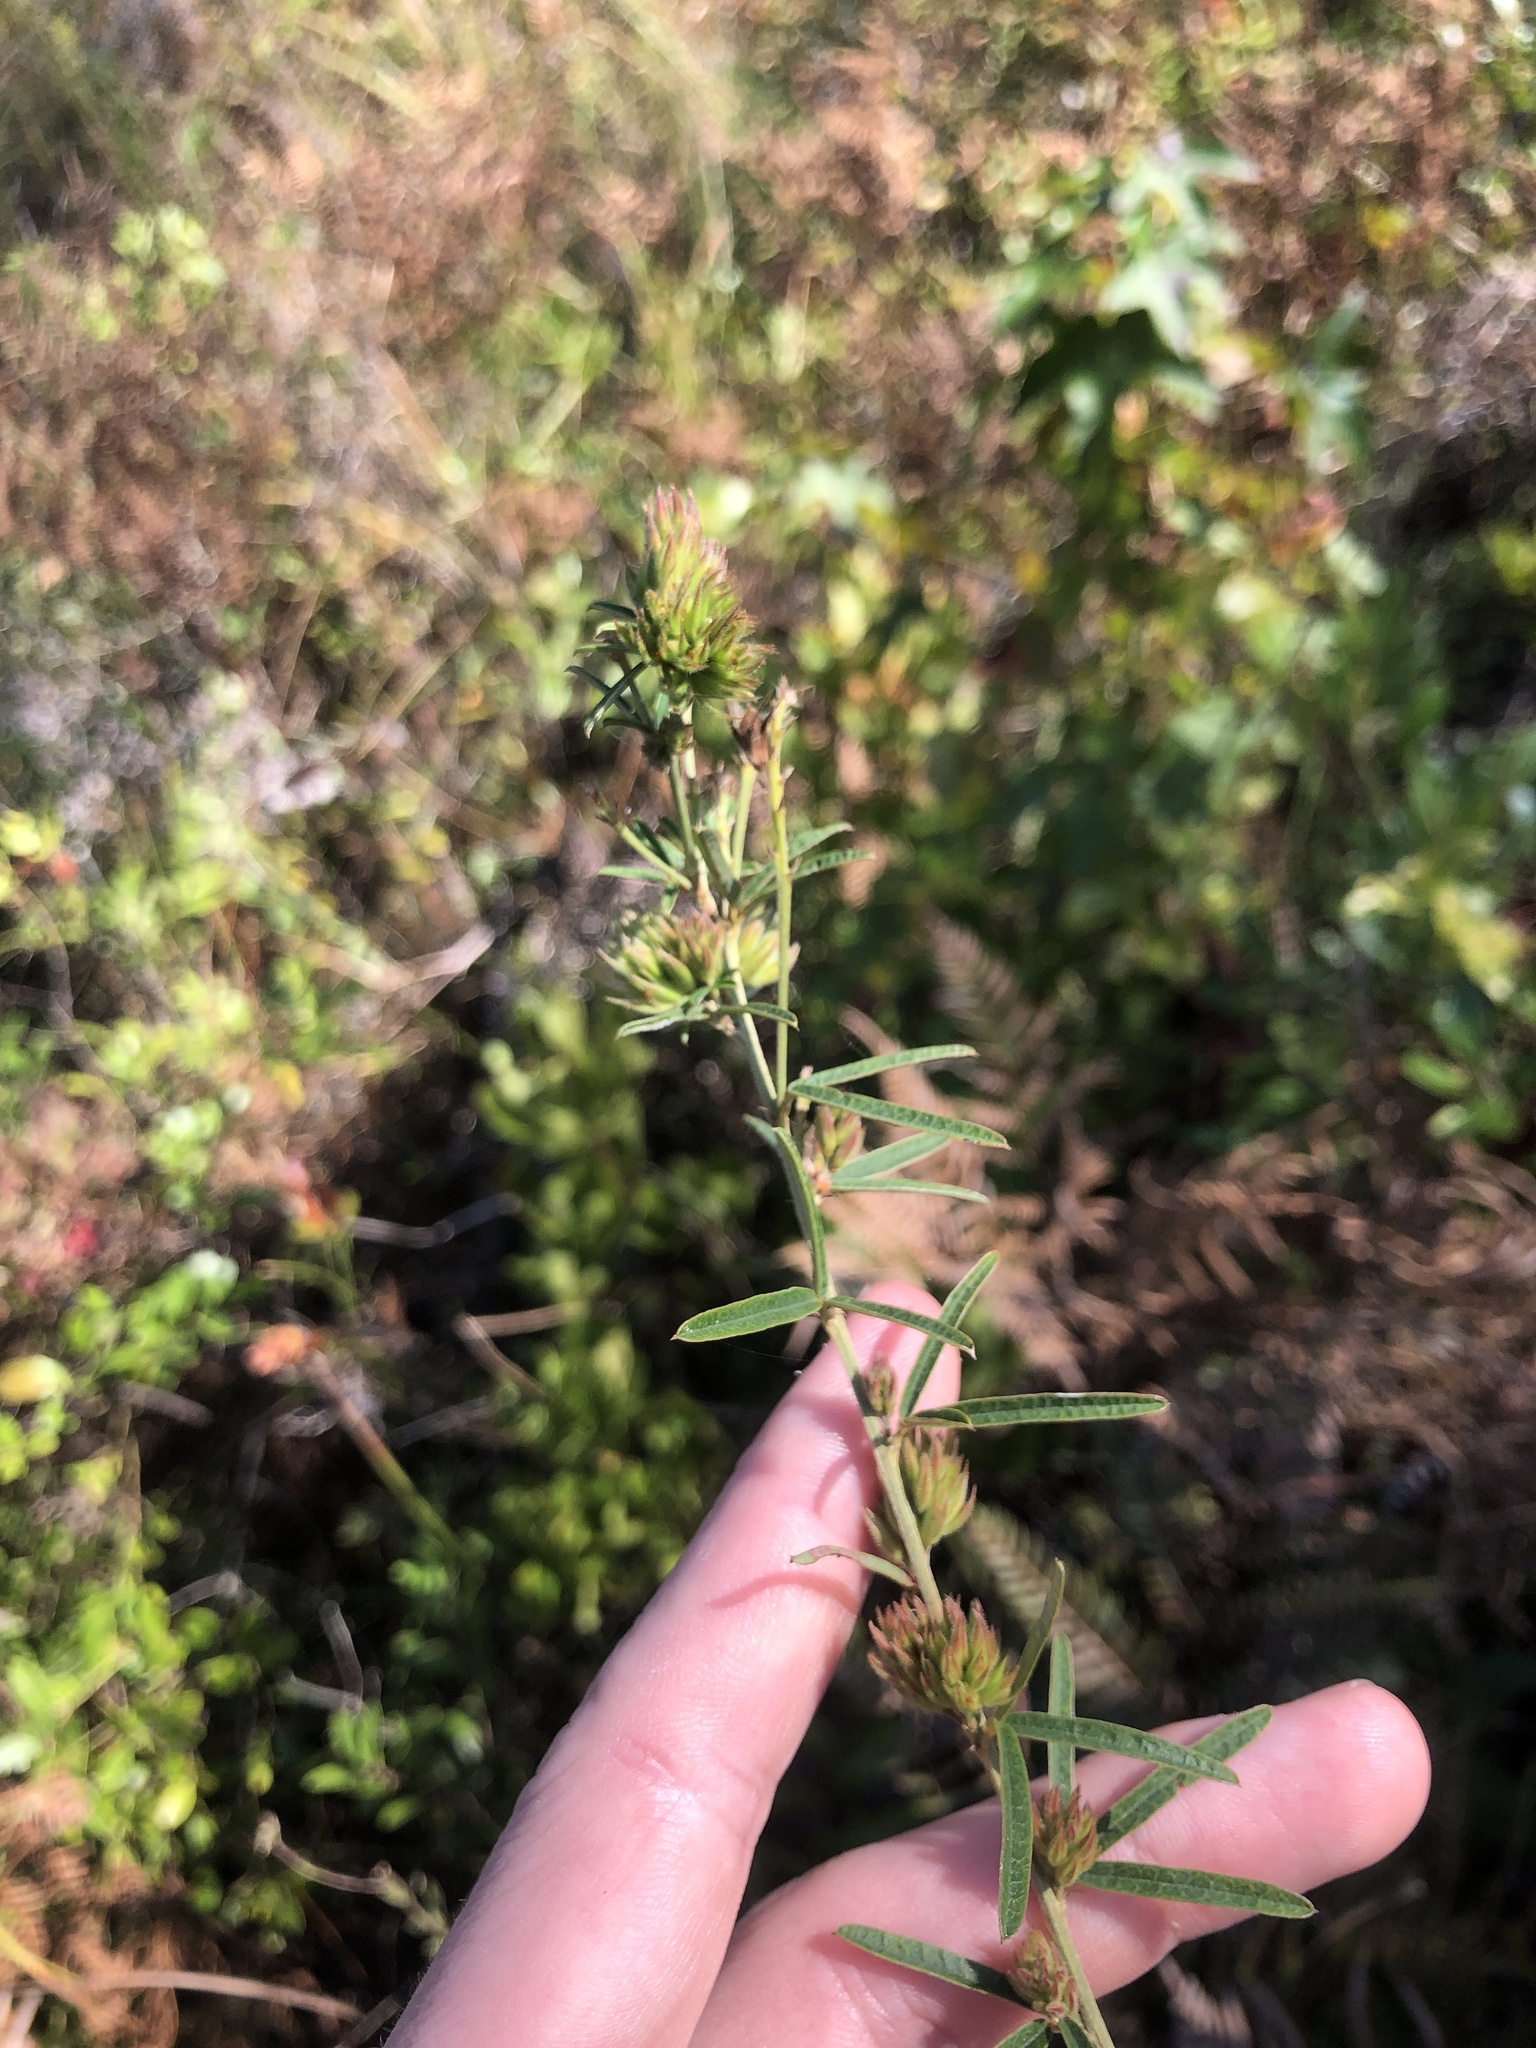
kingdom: Plantae
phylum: Tracheophyta
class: Magnoliopsida
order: Fabales
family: Fabaceae
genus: Lespedeza
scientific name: Lespedeza angustifolia
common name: Narrow-leaf bush-clover
